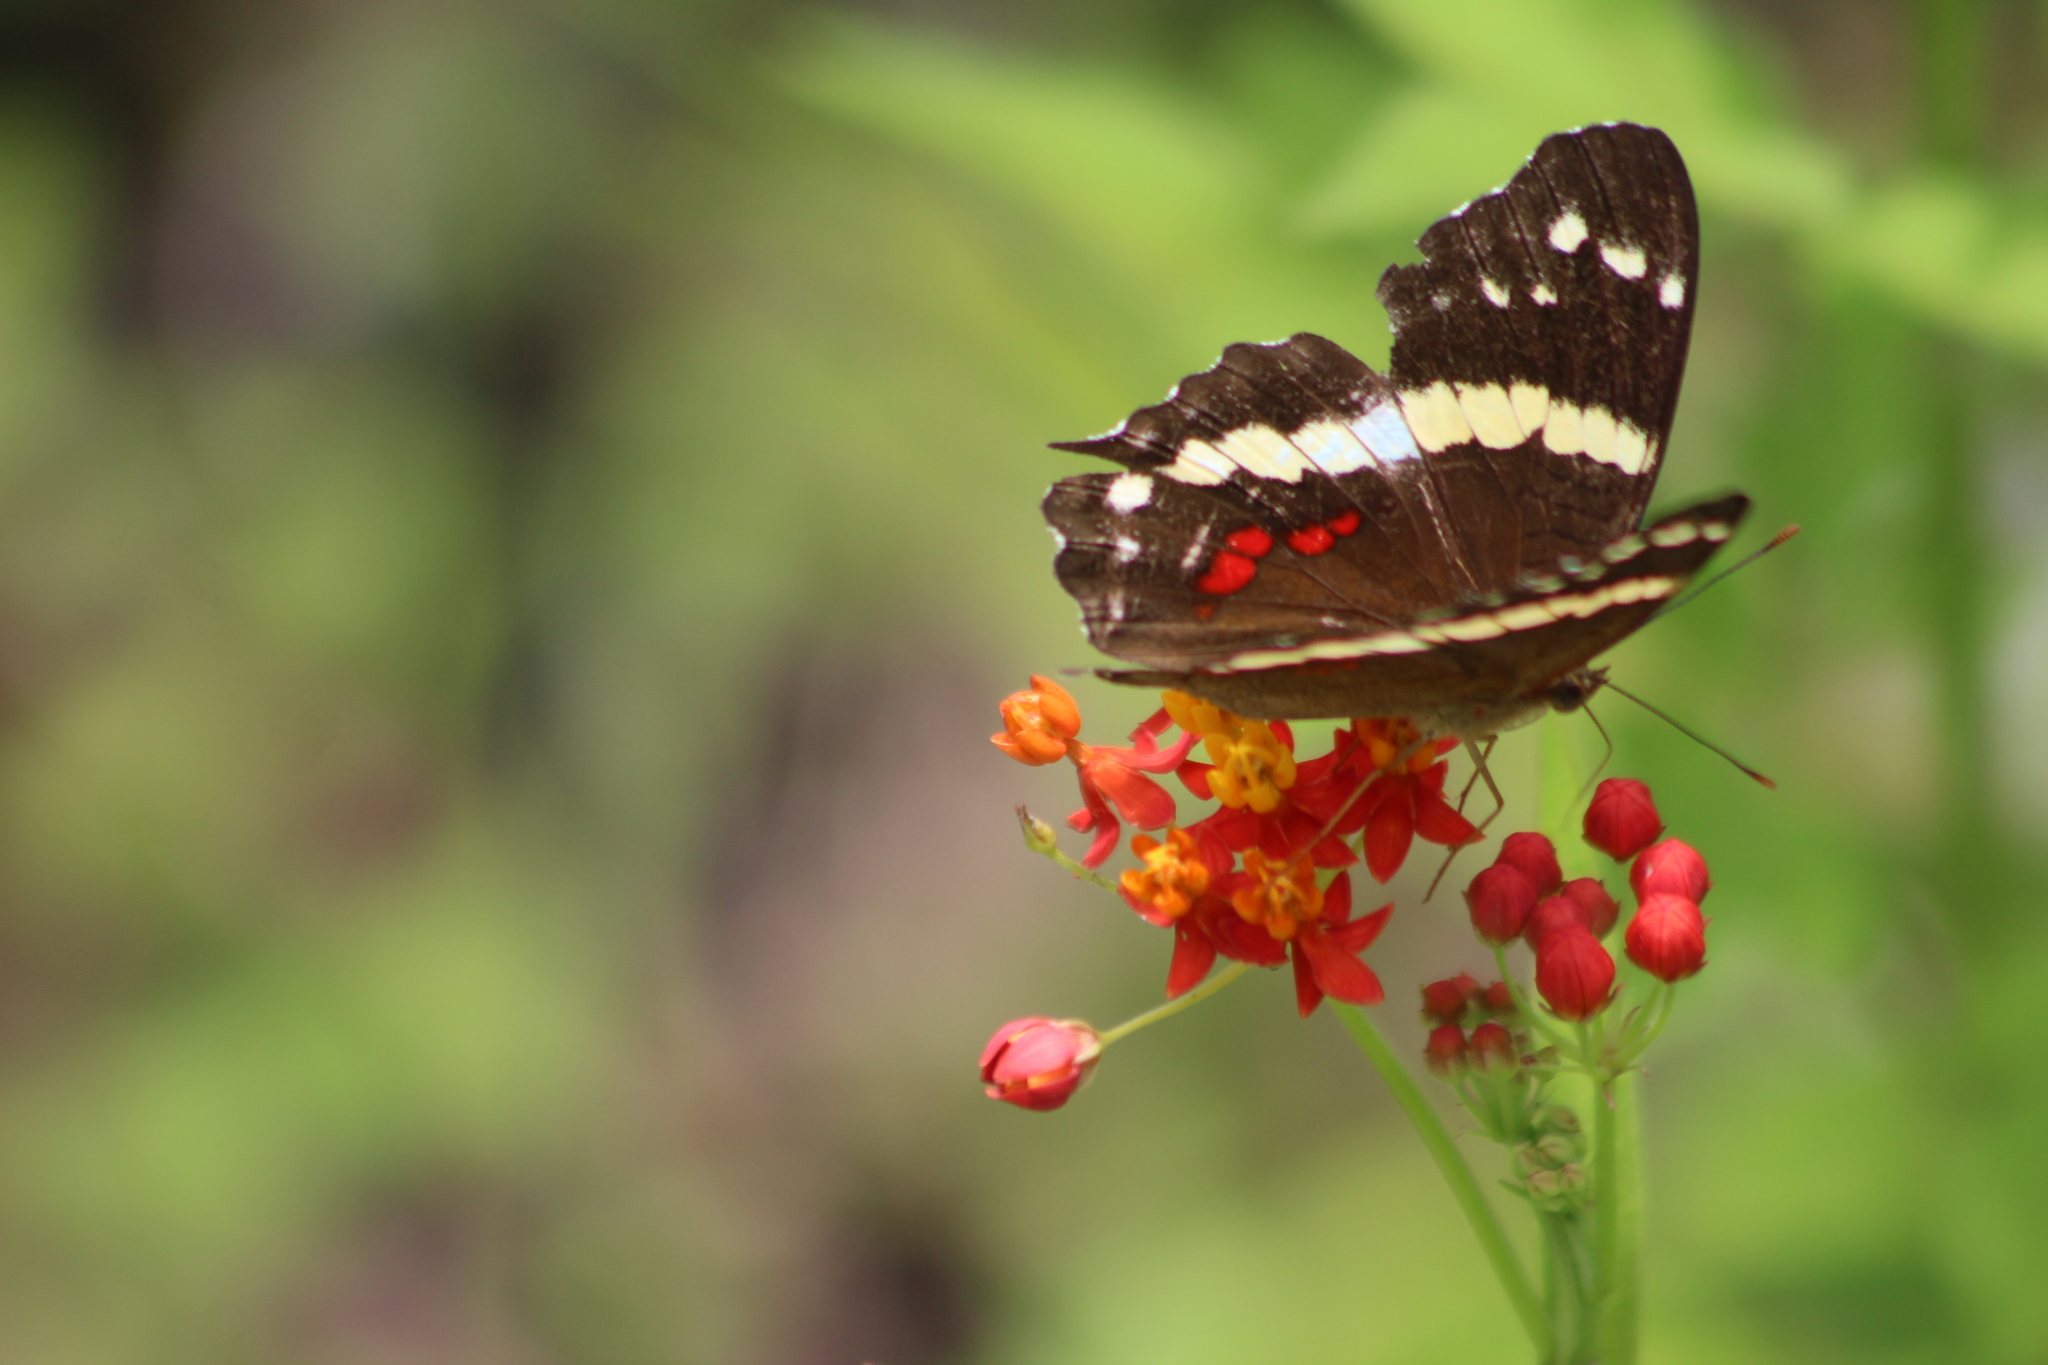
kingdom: Animalia
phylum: Arthropoda
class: Insecta
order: Lepidoptera
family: Nymphalidae
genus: Anartia
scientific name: Anartia fatima
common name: Banded peacock
